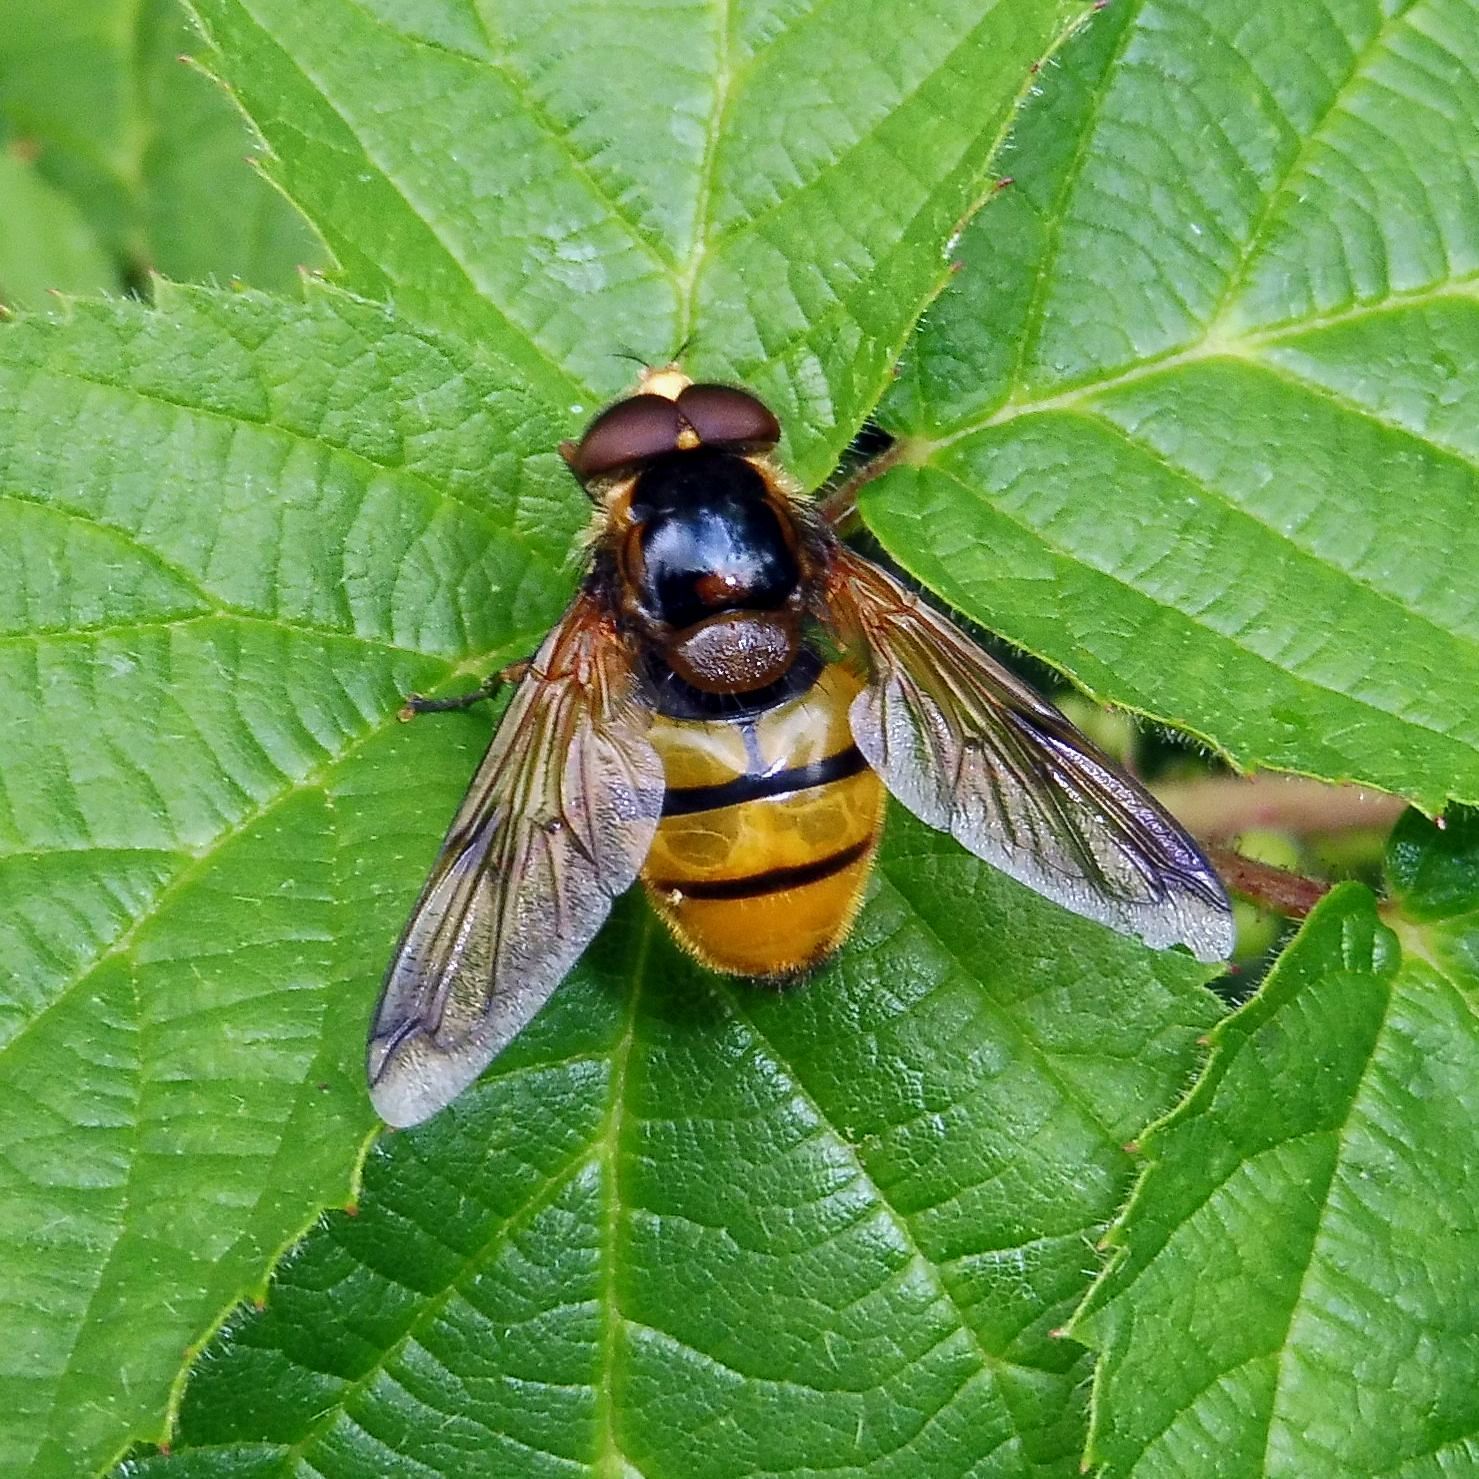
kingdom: Animalia
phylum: Arthropoda
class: Insecta
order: Diptera
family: Syrphidae
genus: Volucella
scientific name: Volucella inanis
